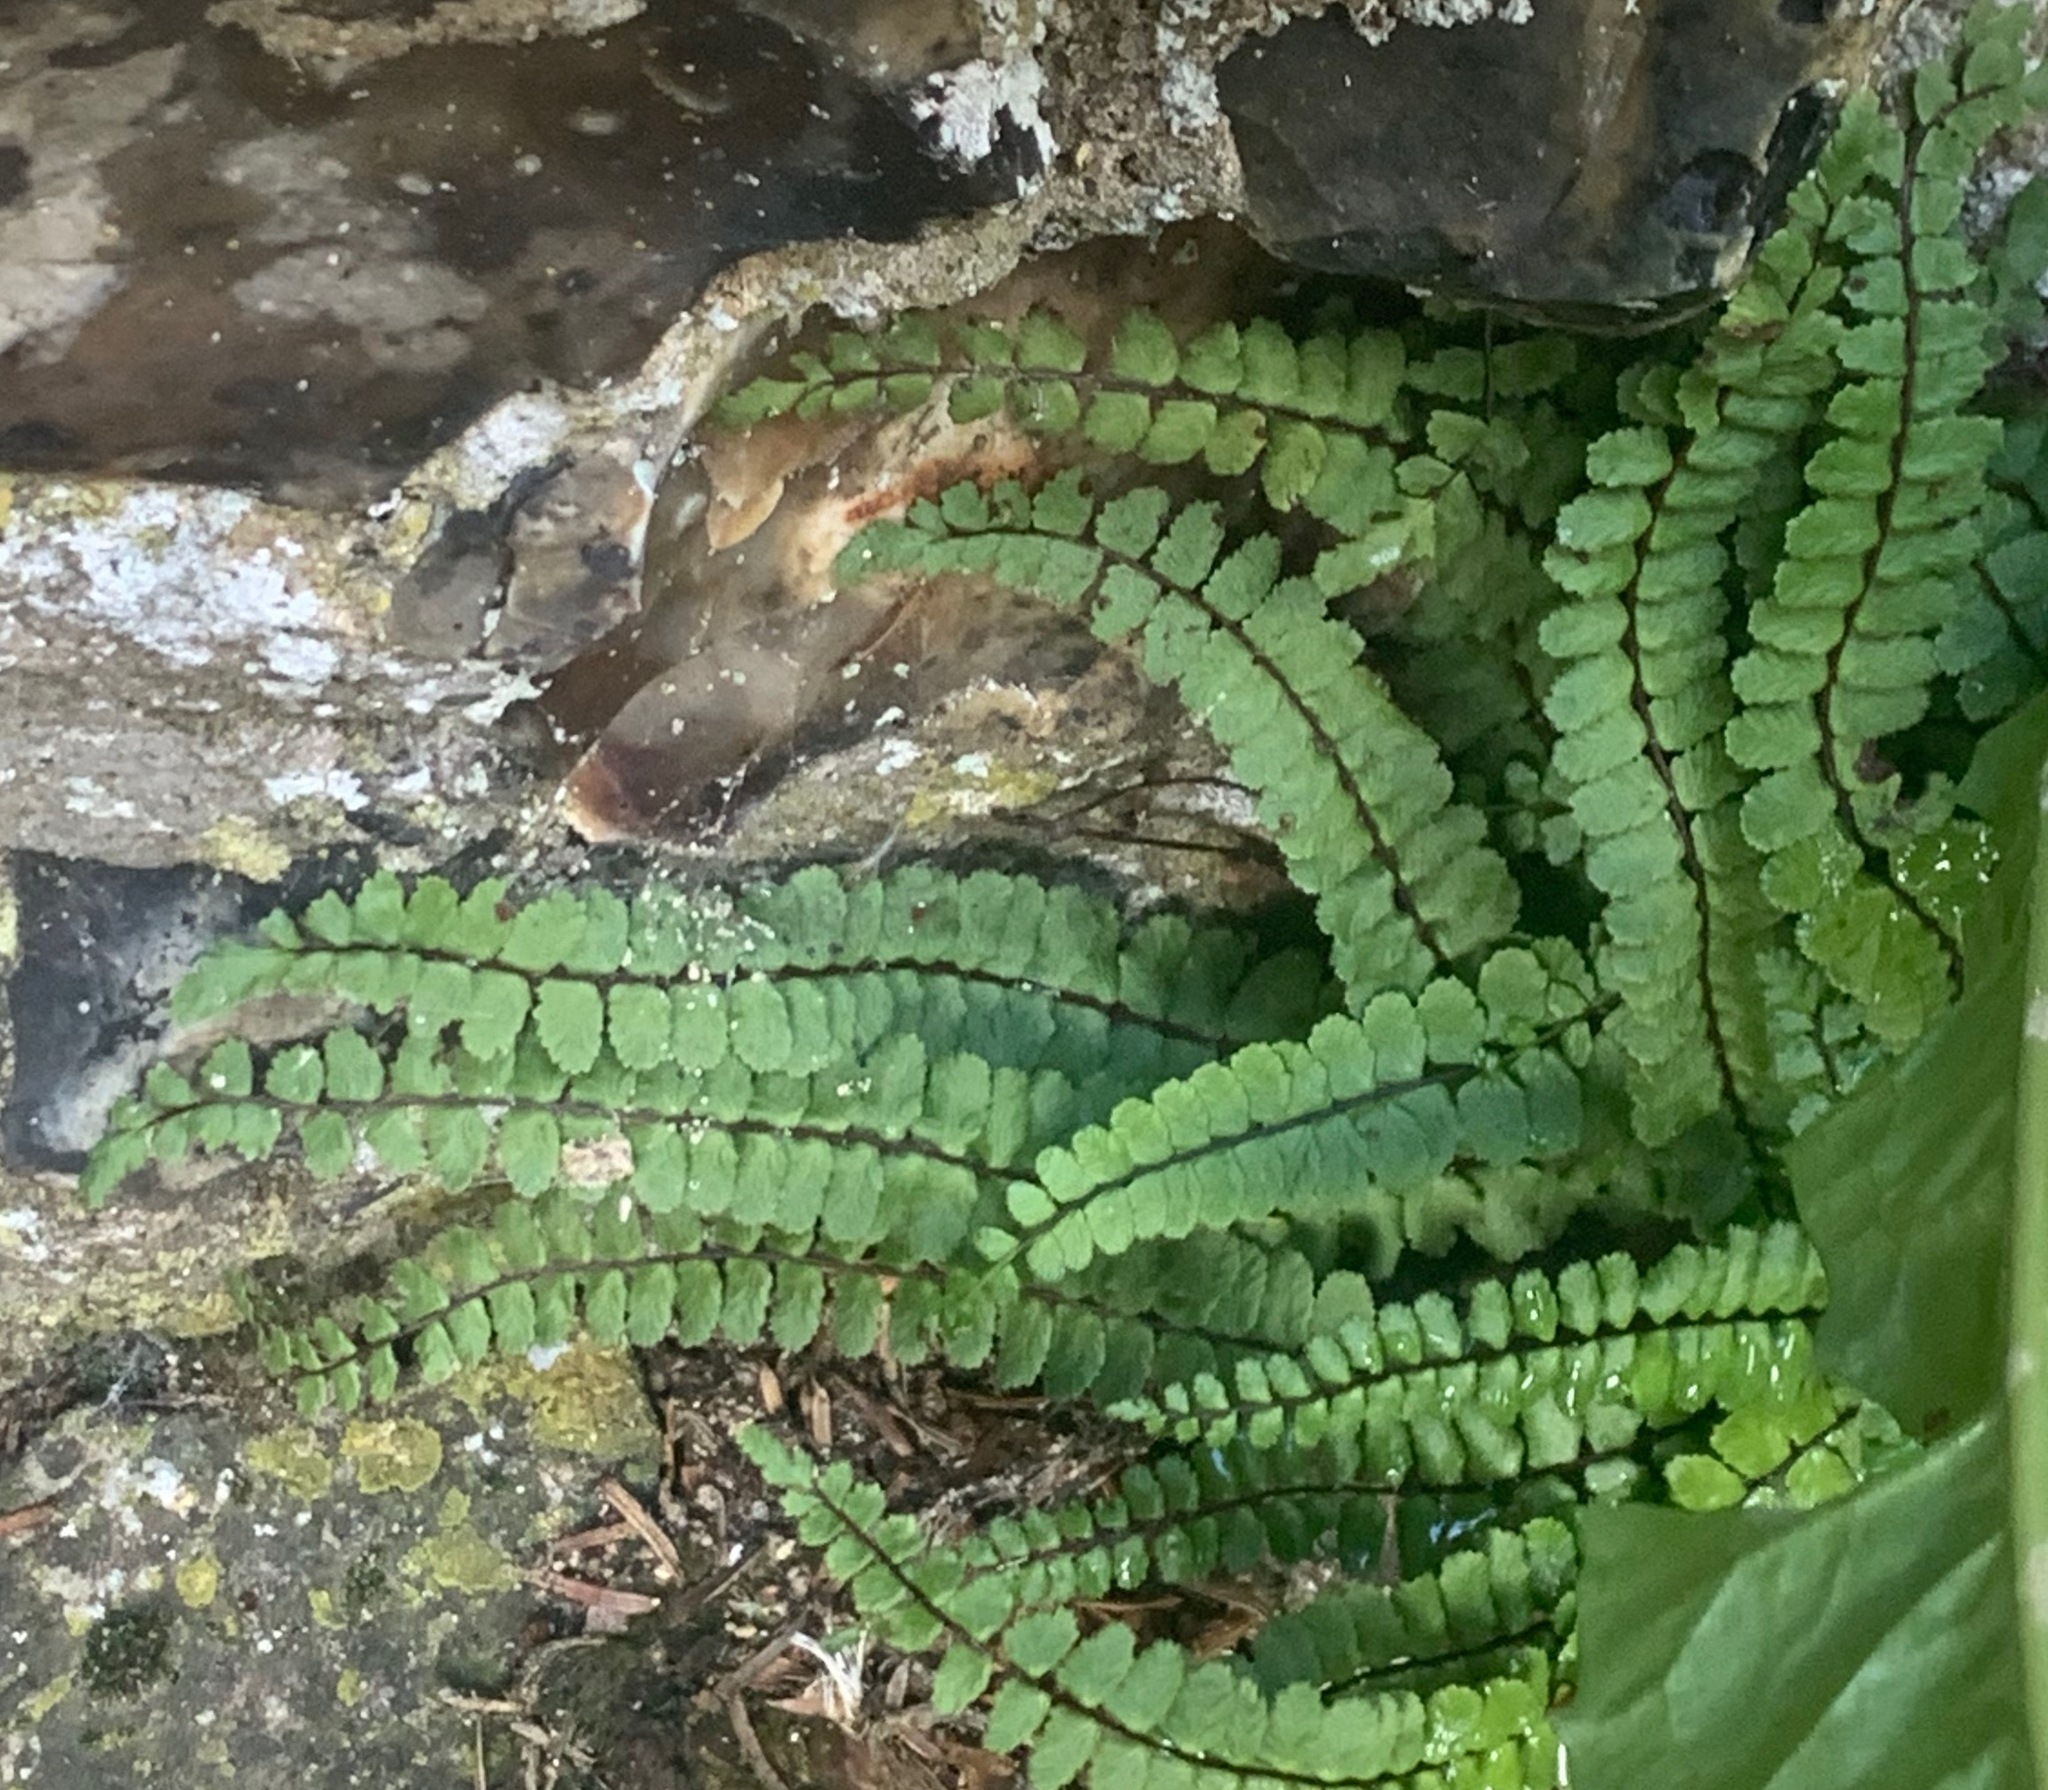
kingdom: Plantae
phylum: Tracheophyta
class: Polypodiopsida
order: Polypodiales
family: Aspleniaceae
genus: Asplenium
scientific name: Asplenium trichomanes
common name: Maidenhair spleenwort
